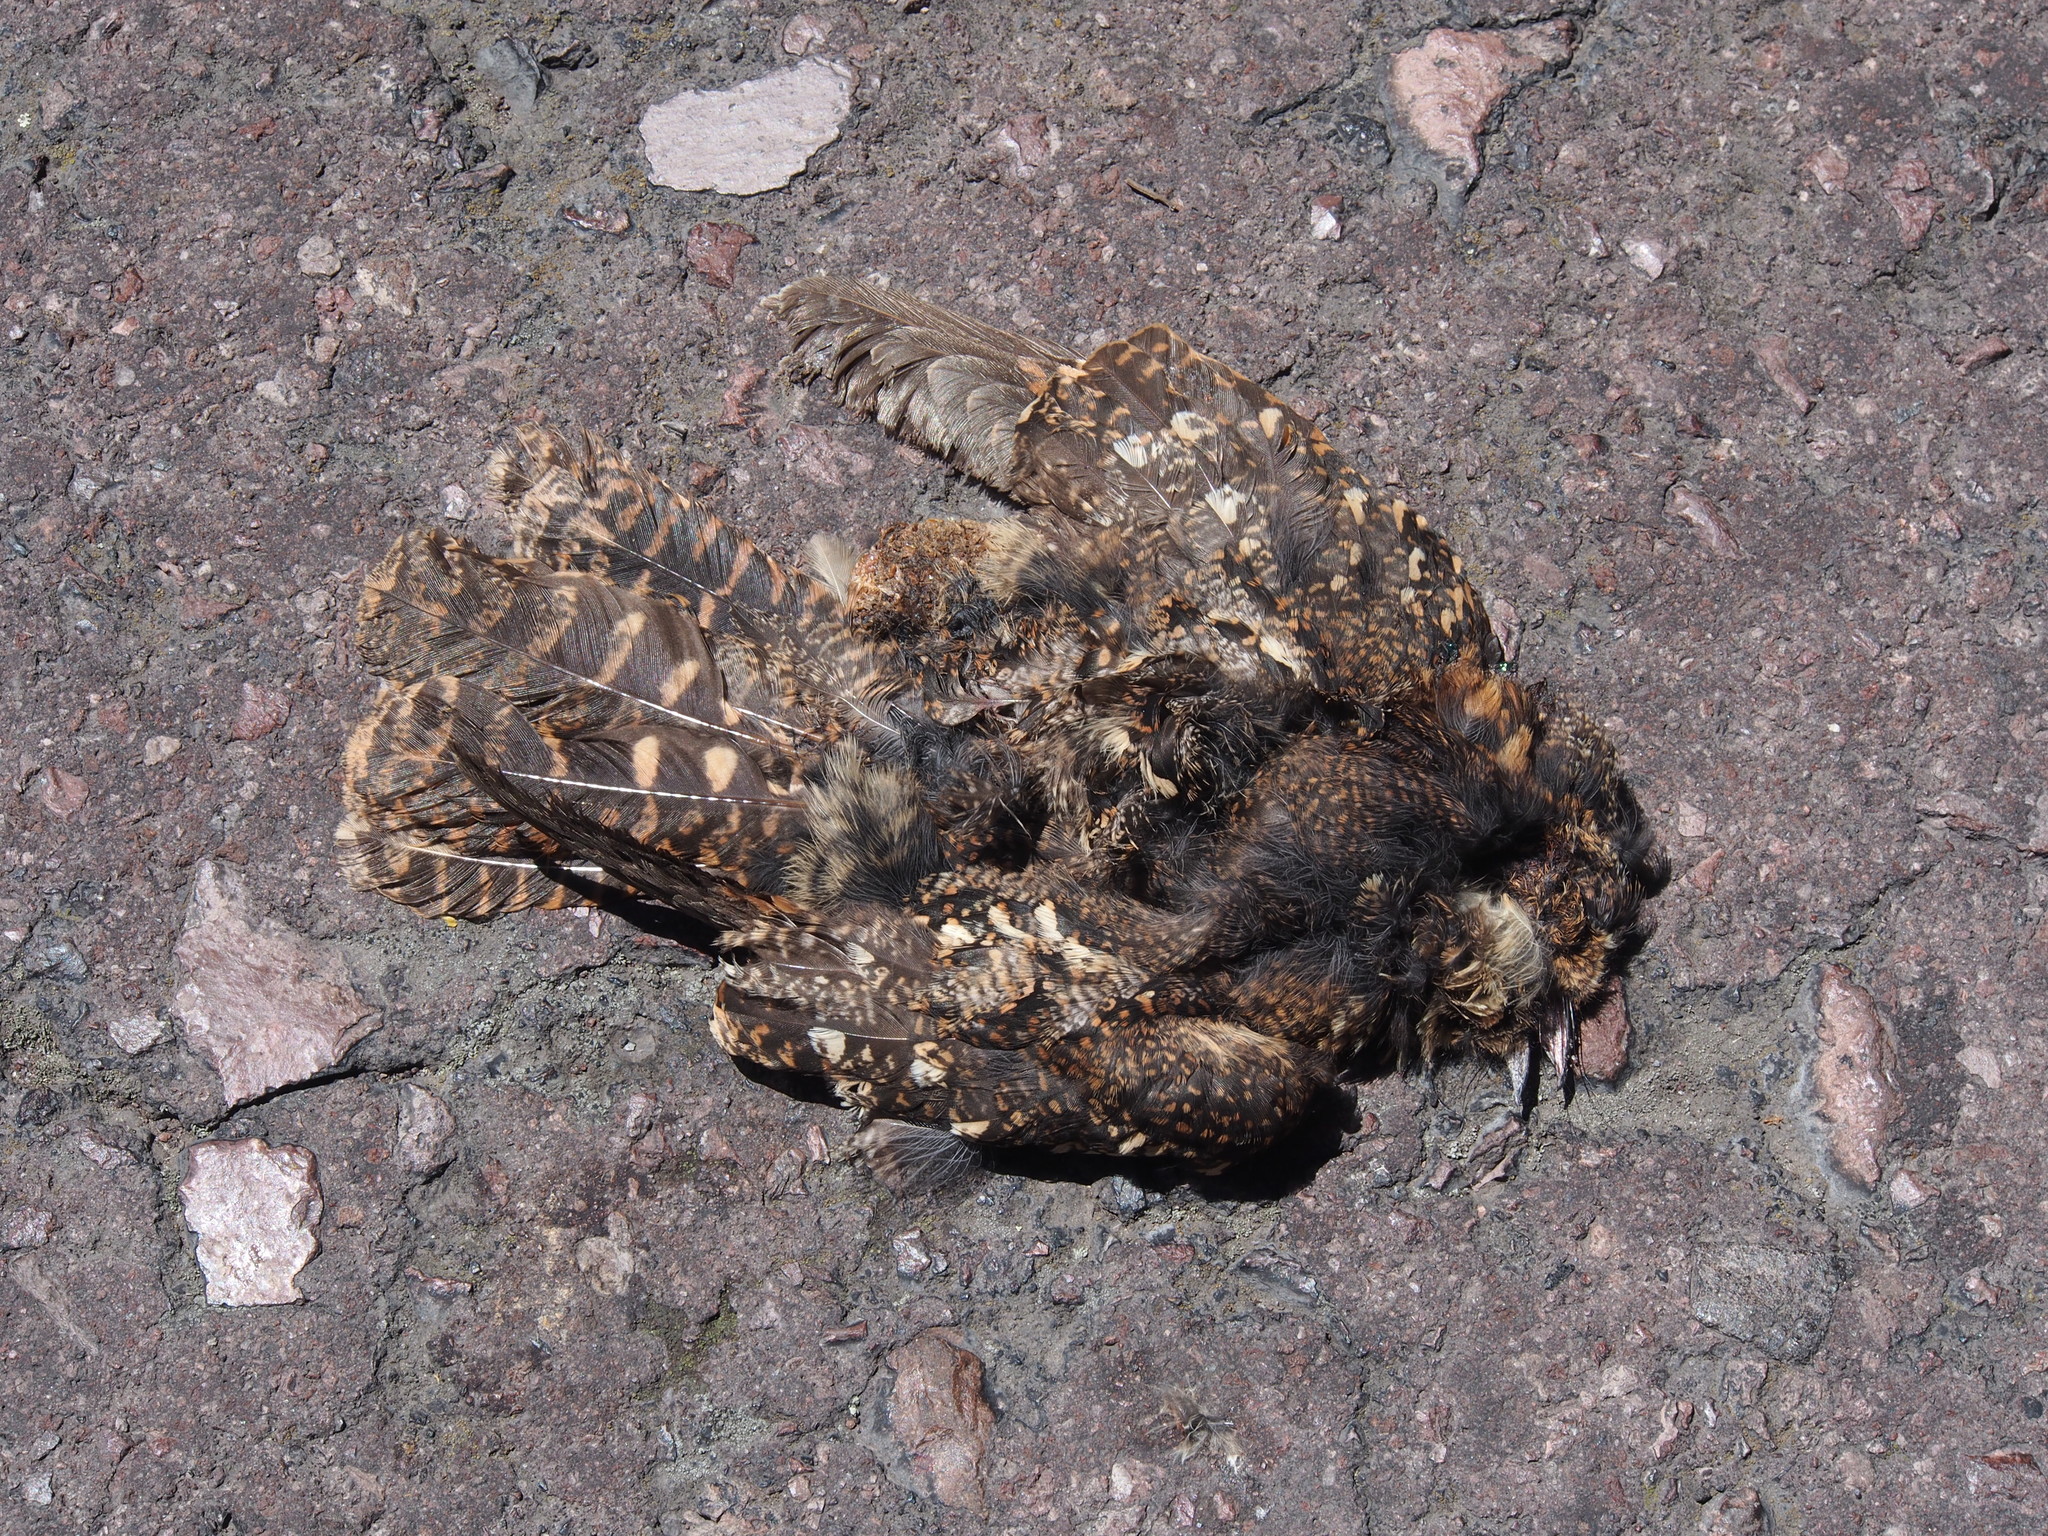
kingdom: Animalia
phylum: Chordata
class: Aves
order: Caprimulgiformes
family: Caprimulgidae
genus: Systellura
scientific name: Systellura longirostris
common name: Band-winged nightjar
